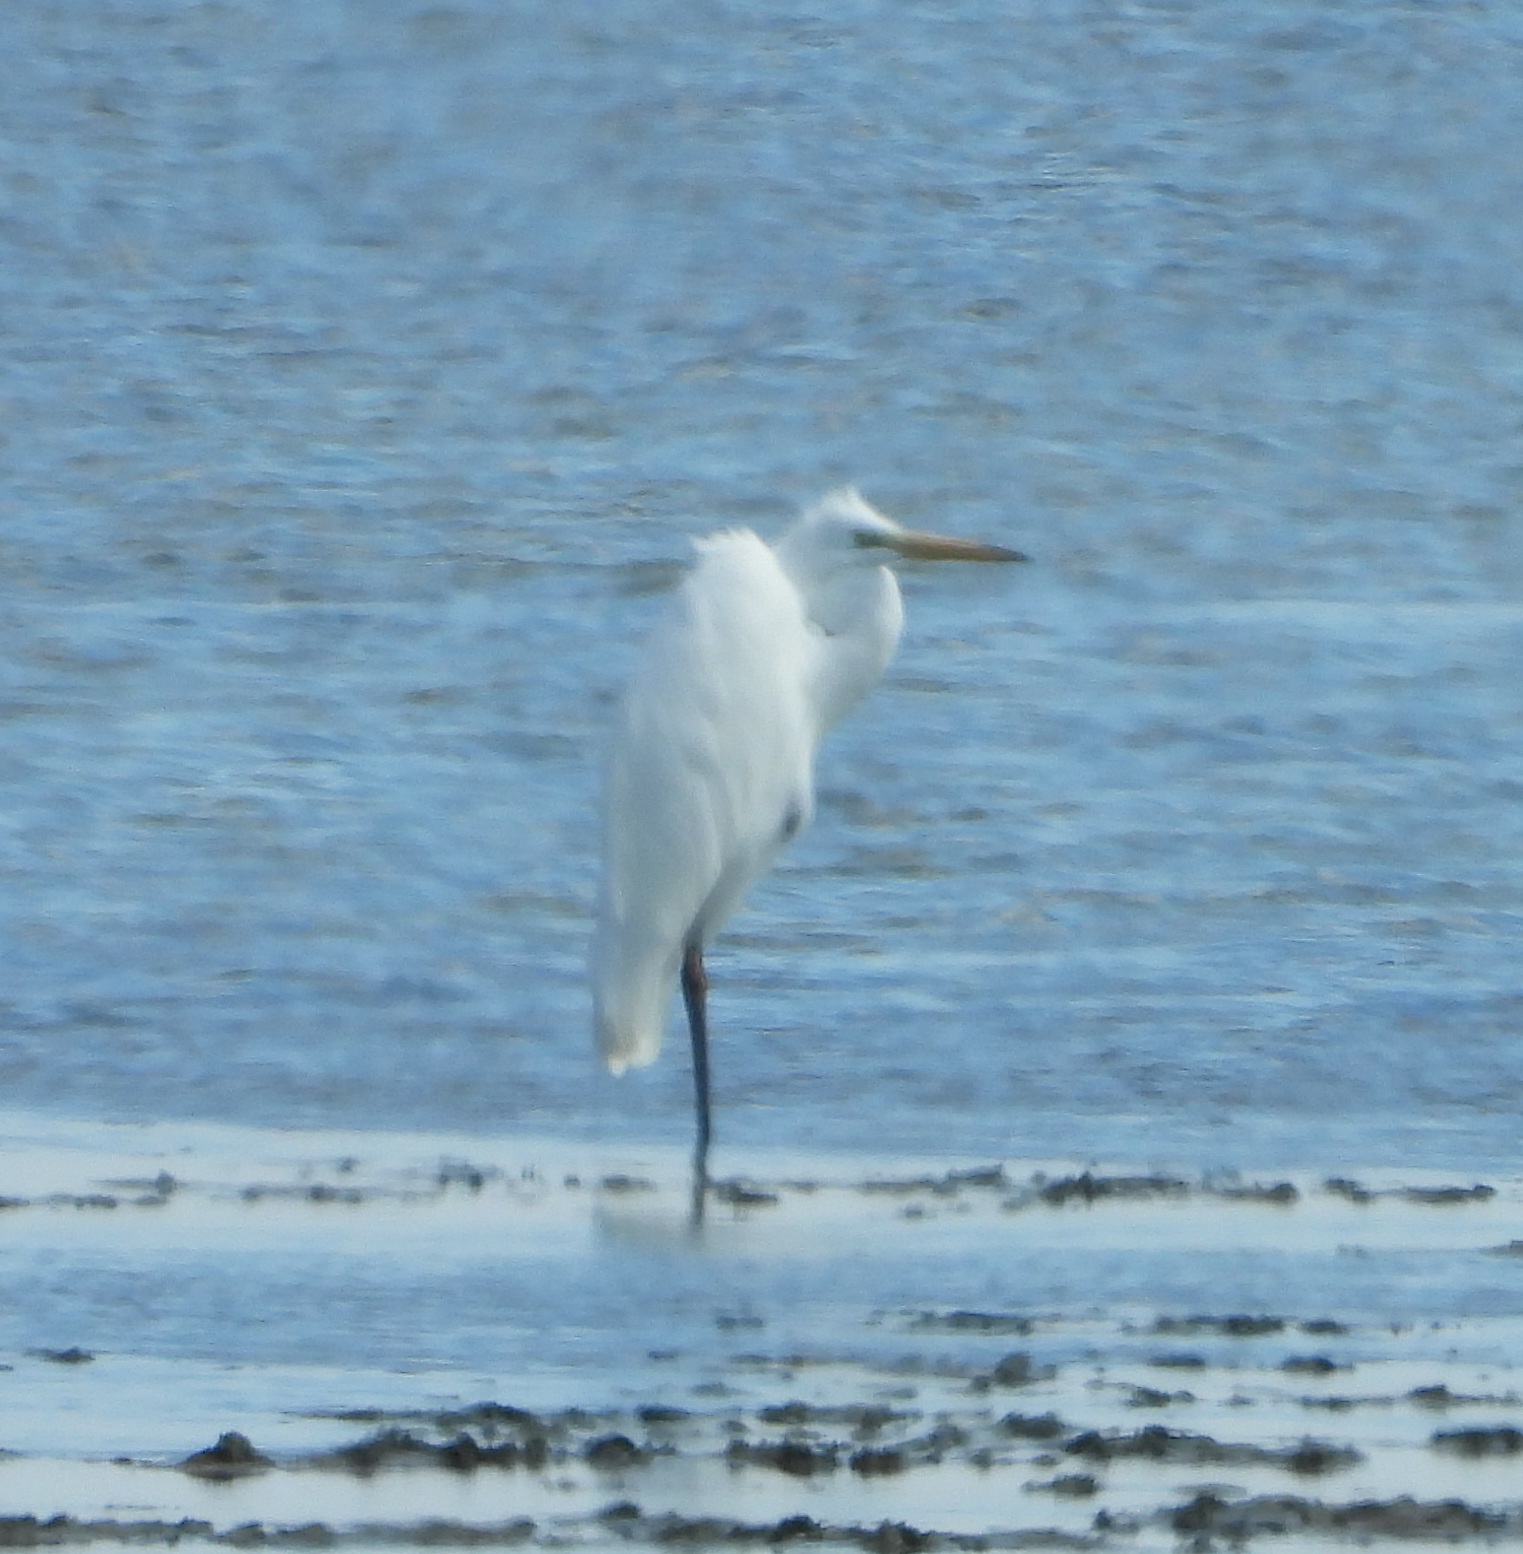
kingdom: Animalia
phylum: Chordata
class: Aves
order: Pelecaniformes
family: Ardeidae
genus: Ardea
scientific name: Ardea alba
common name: Great egret
